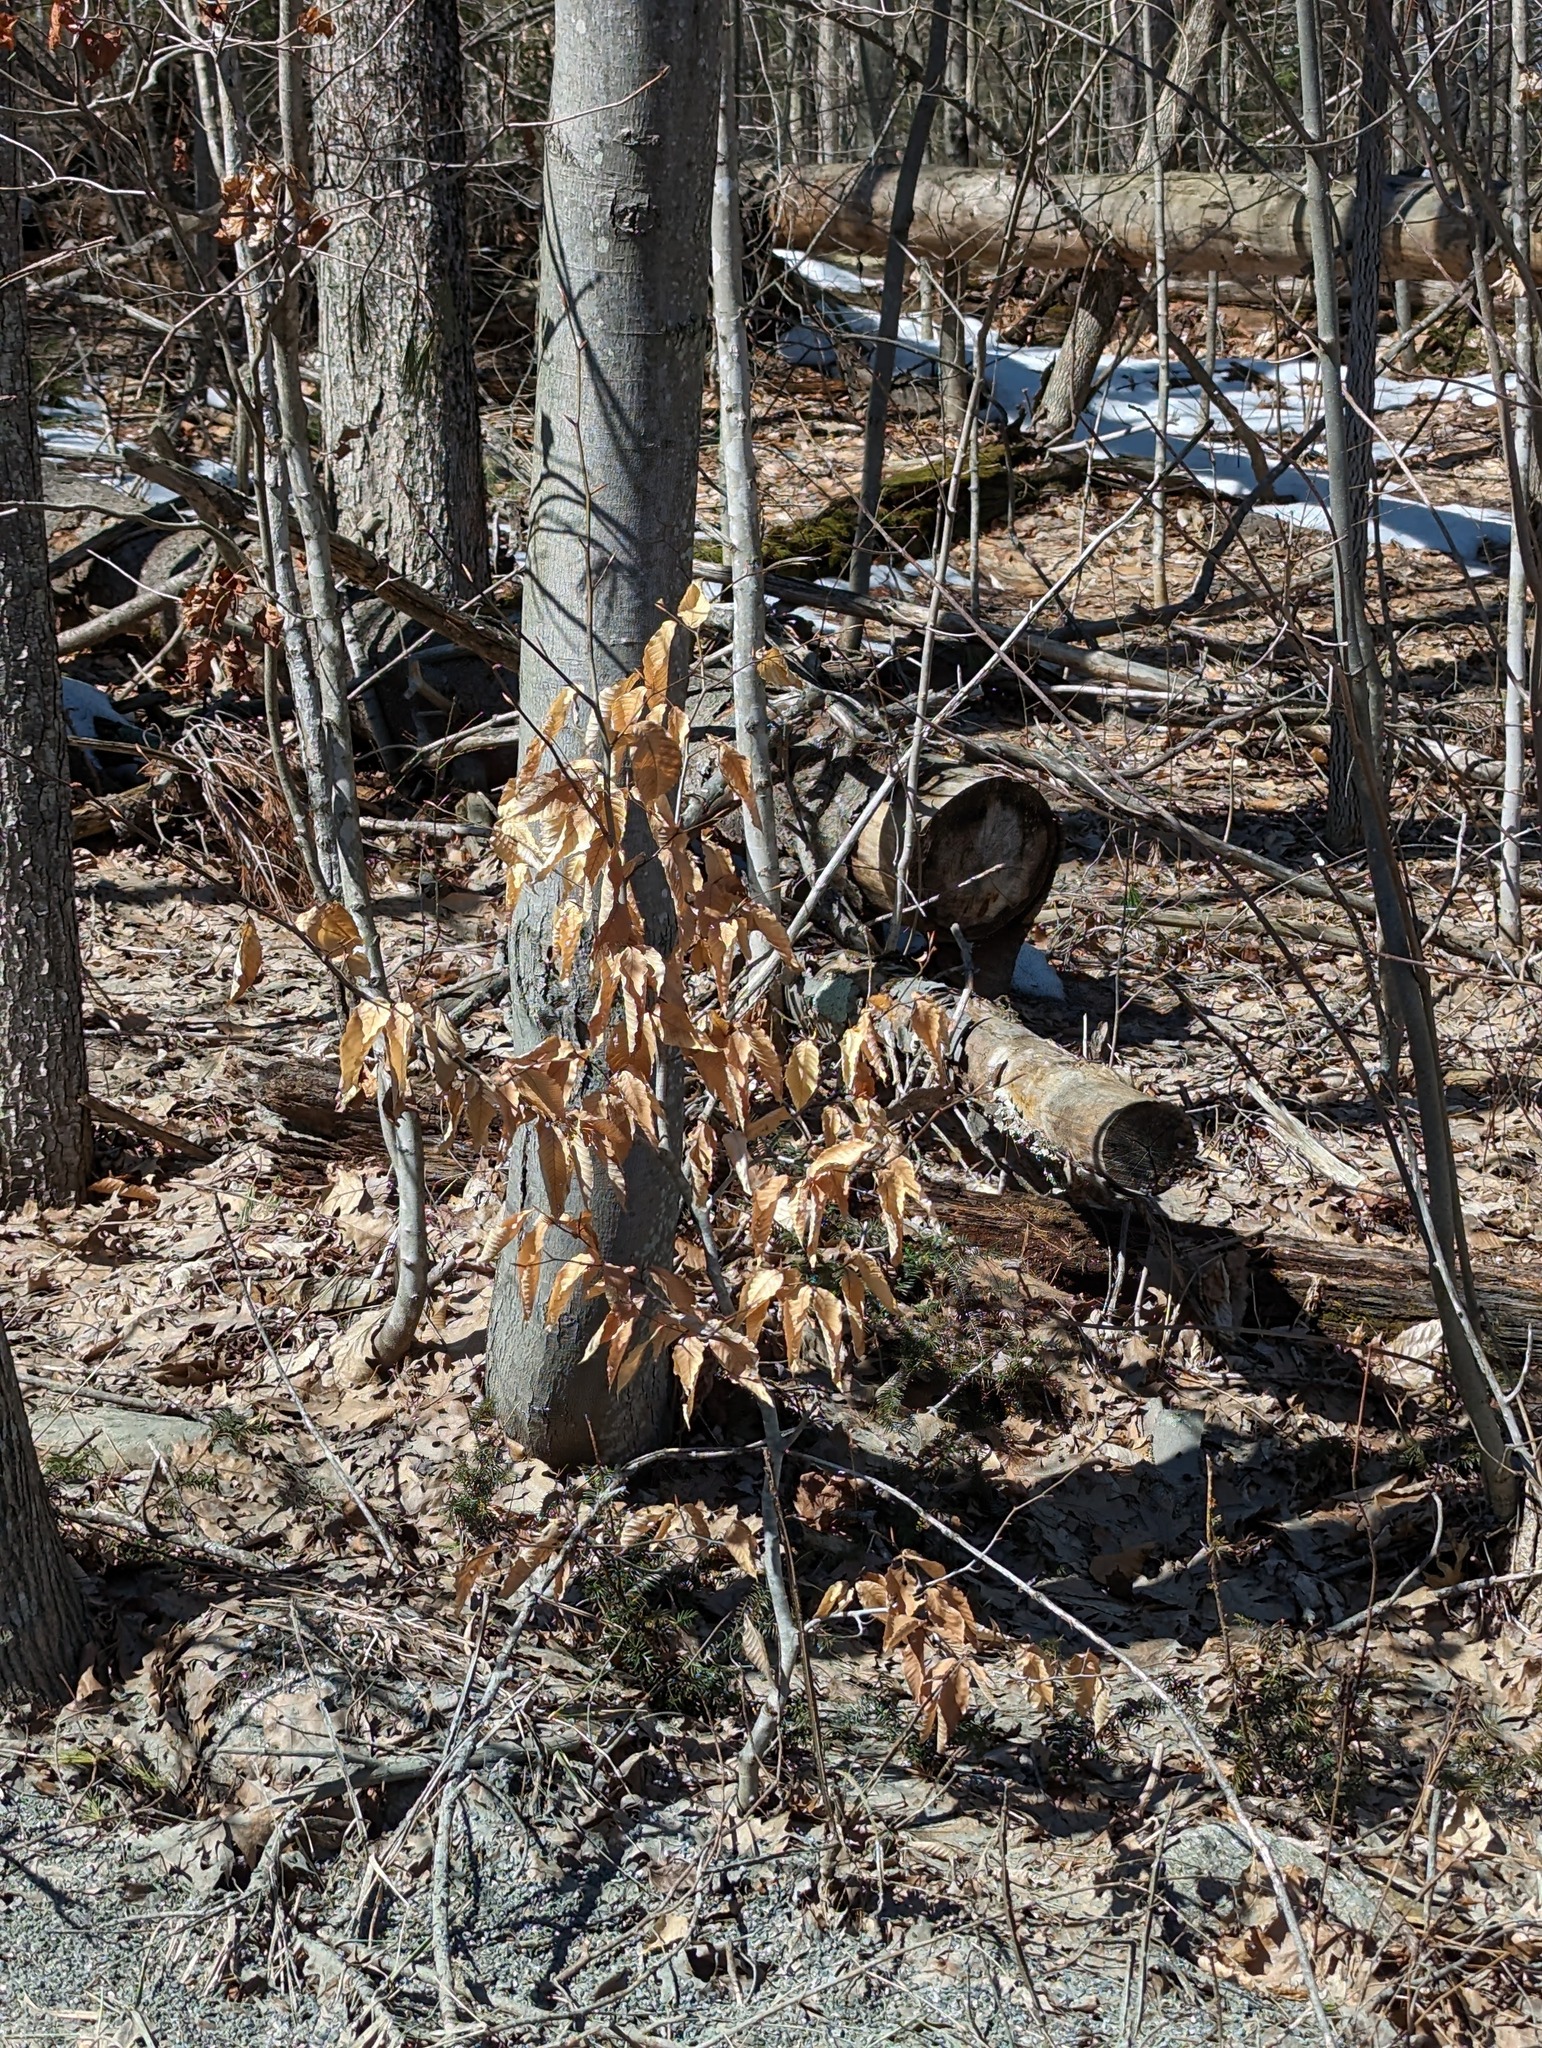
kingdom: Plantae
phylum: Tracheophyta
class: Magnoliopsida
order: Fagales
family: Fagaceae
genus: Fagus
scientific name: Fagus grandifolia
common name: American beech
